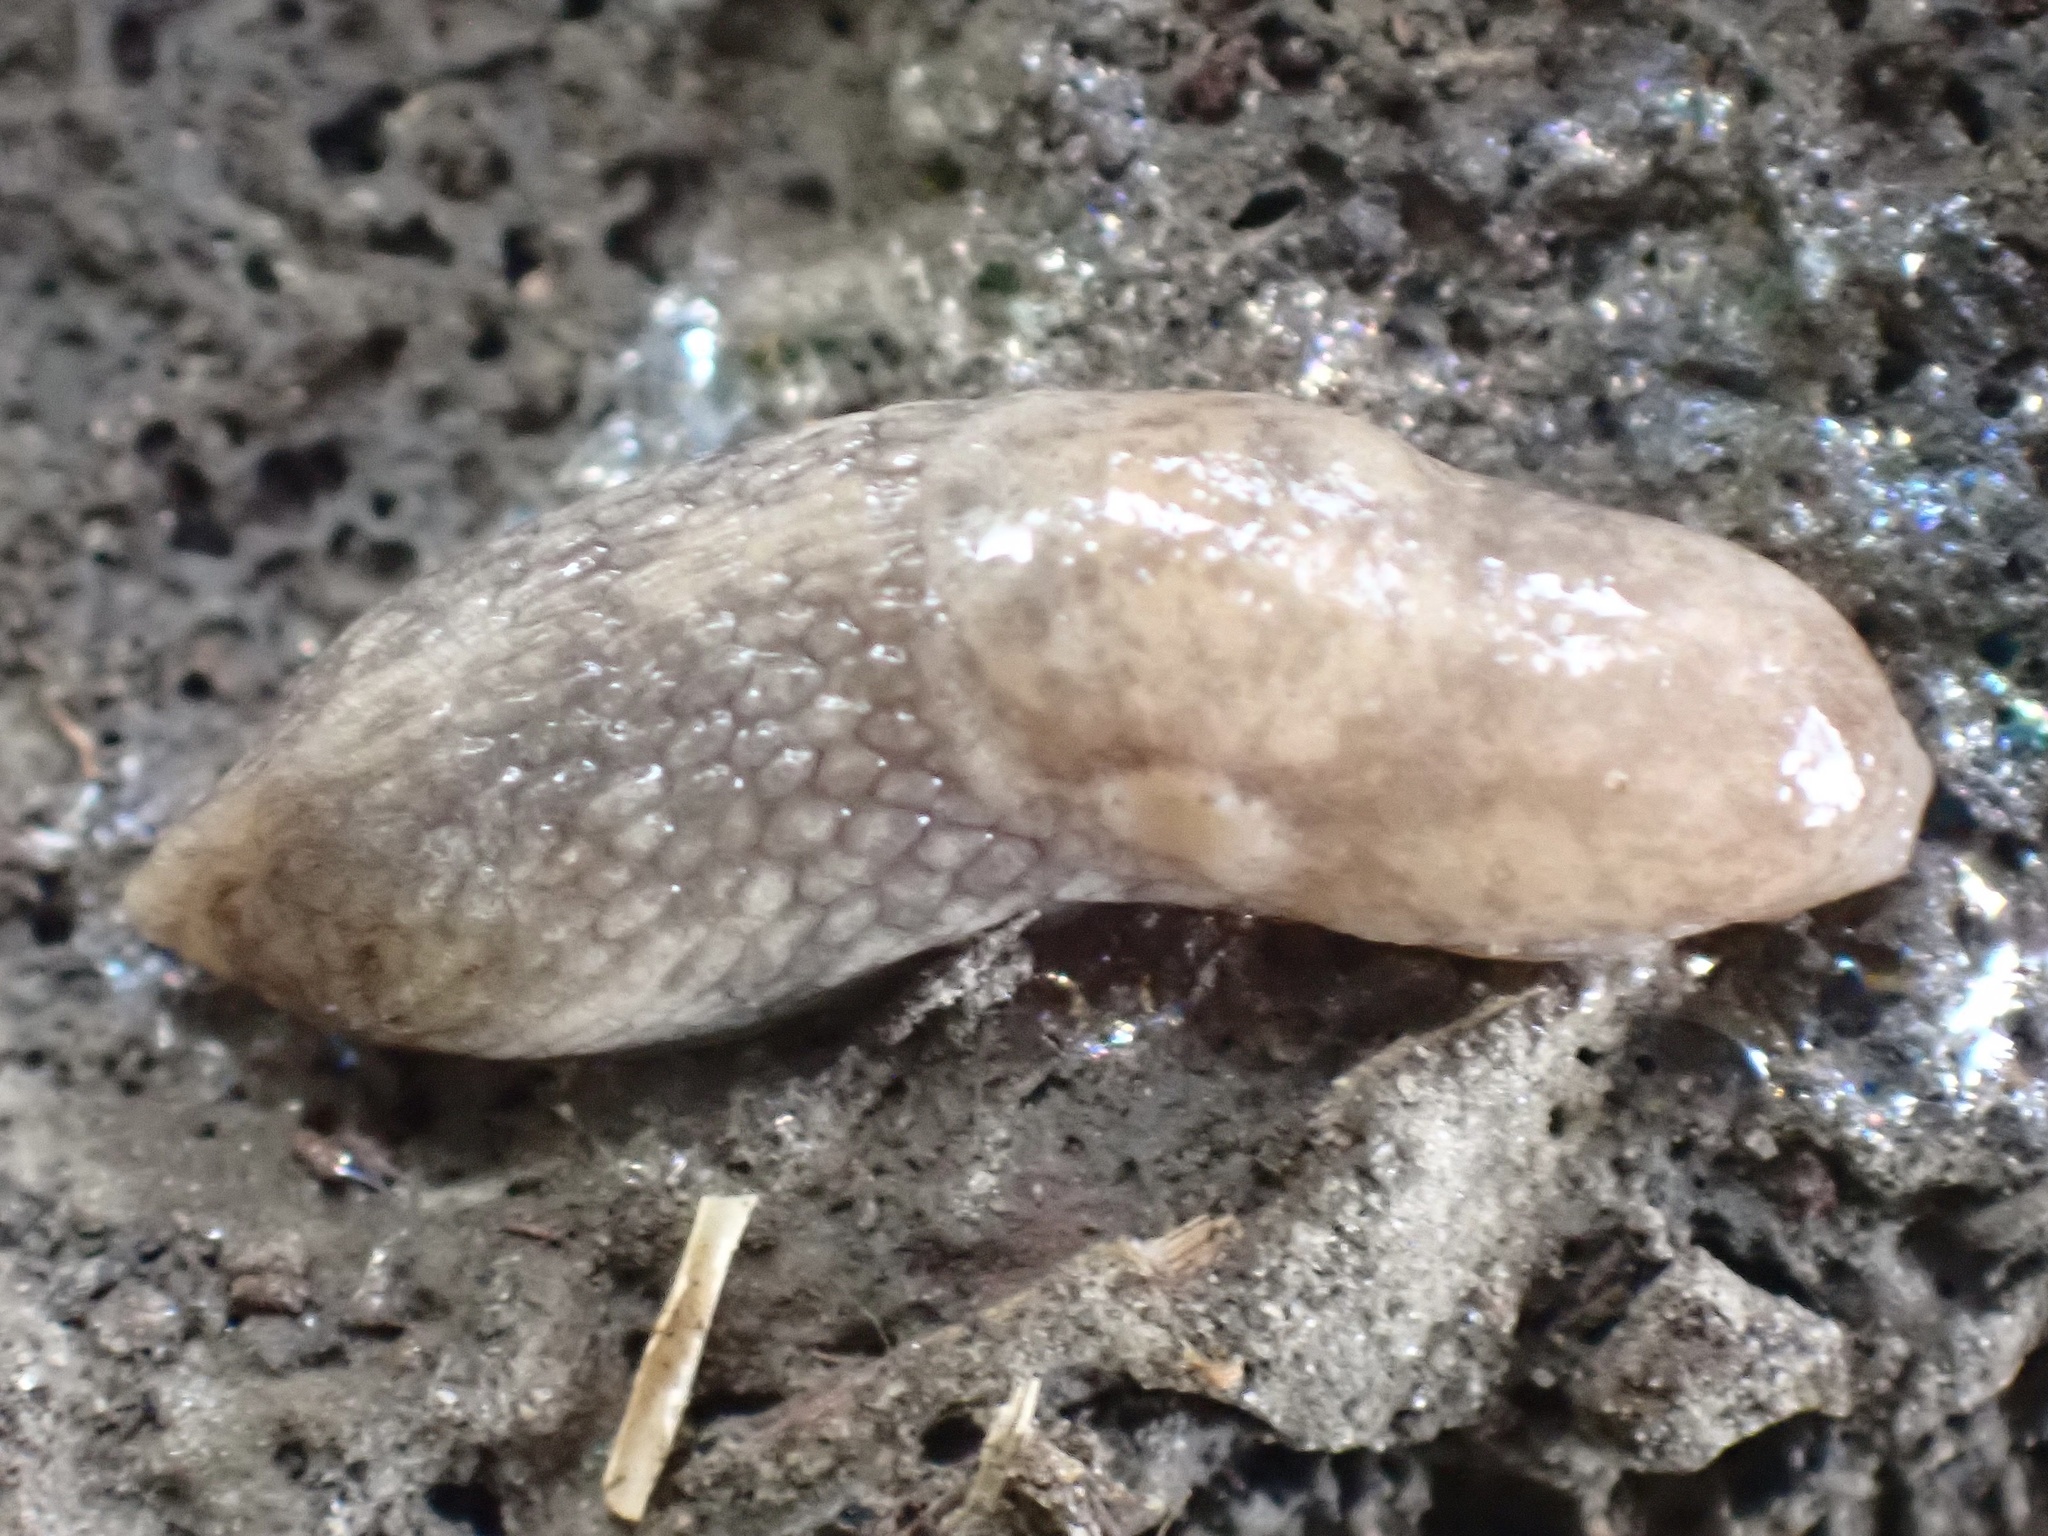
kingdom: Animalia
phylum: Mollusca
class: Gastropoda
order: Stylommatophora
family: Agriolimacidae
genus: Deroceras
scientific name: Deroceras reticulatum
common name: Gray field slug
